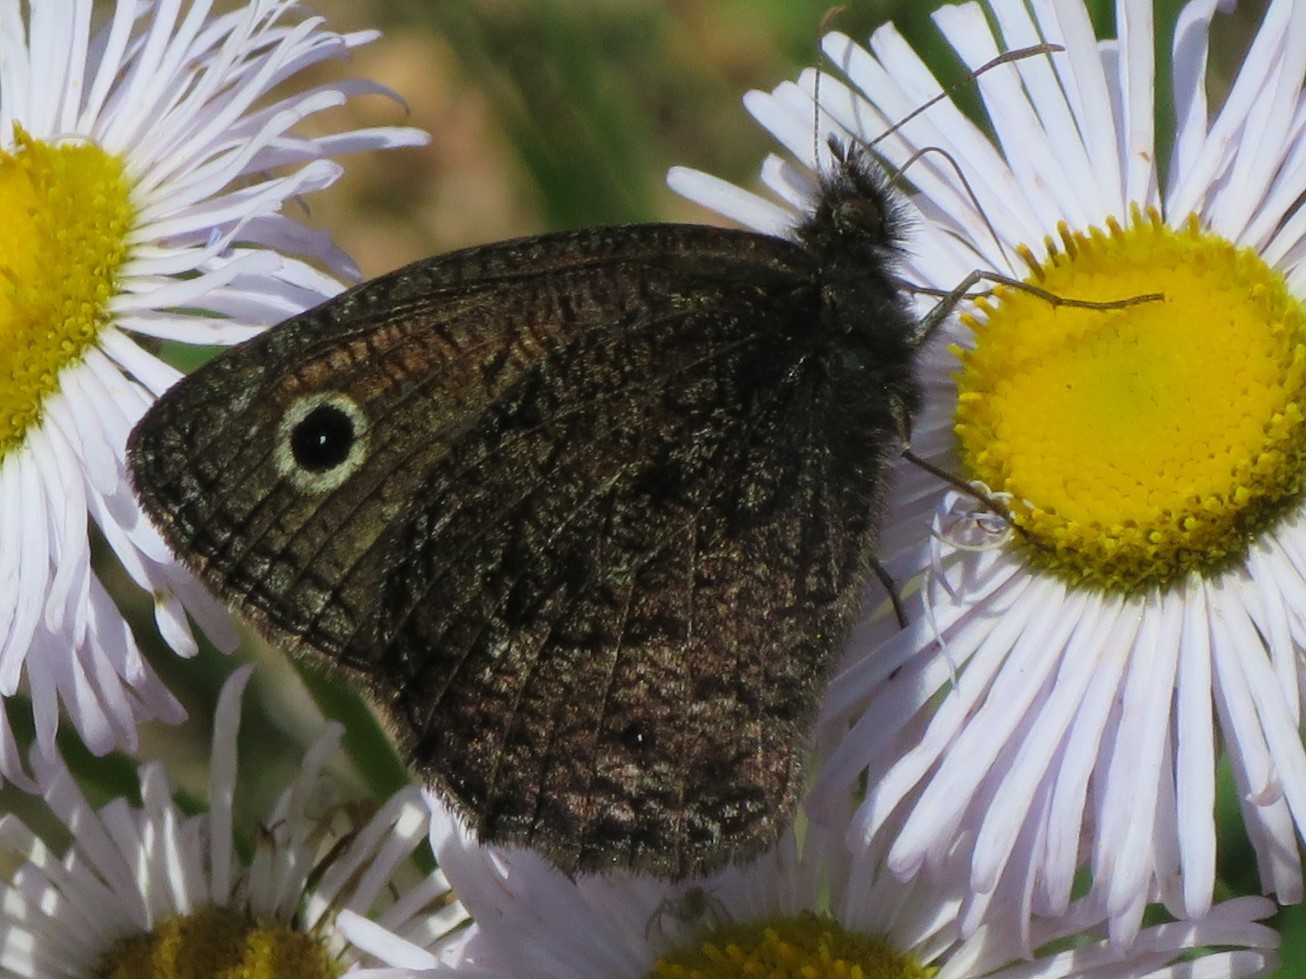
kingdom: Animalia
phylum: Arthropoda
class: Insecta
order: Lepidoptera
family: Nymphalidae
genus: Cercyonis
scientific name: Cercyonis oetus
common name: Small wood-nymph
